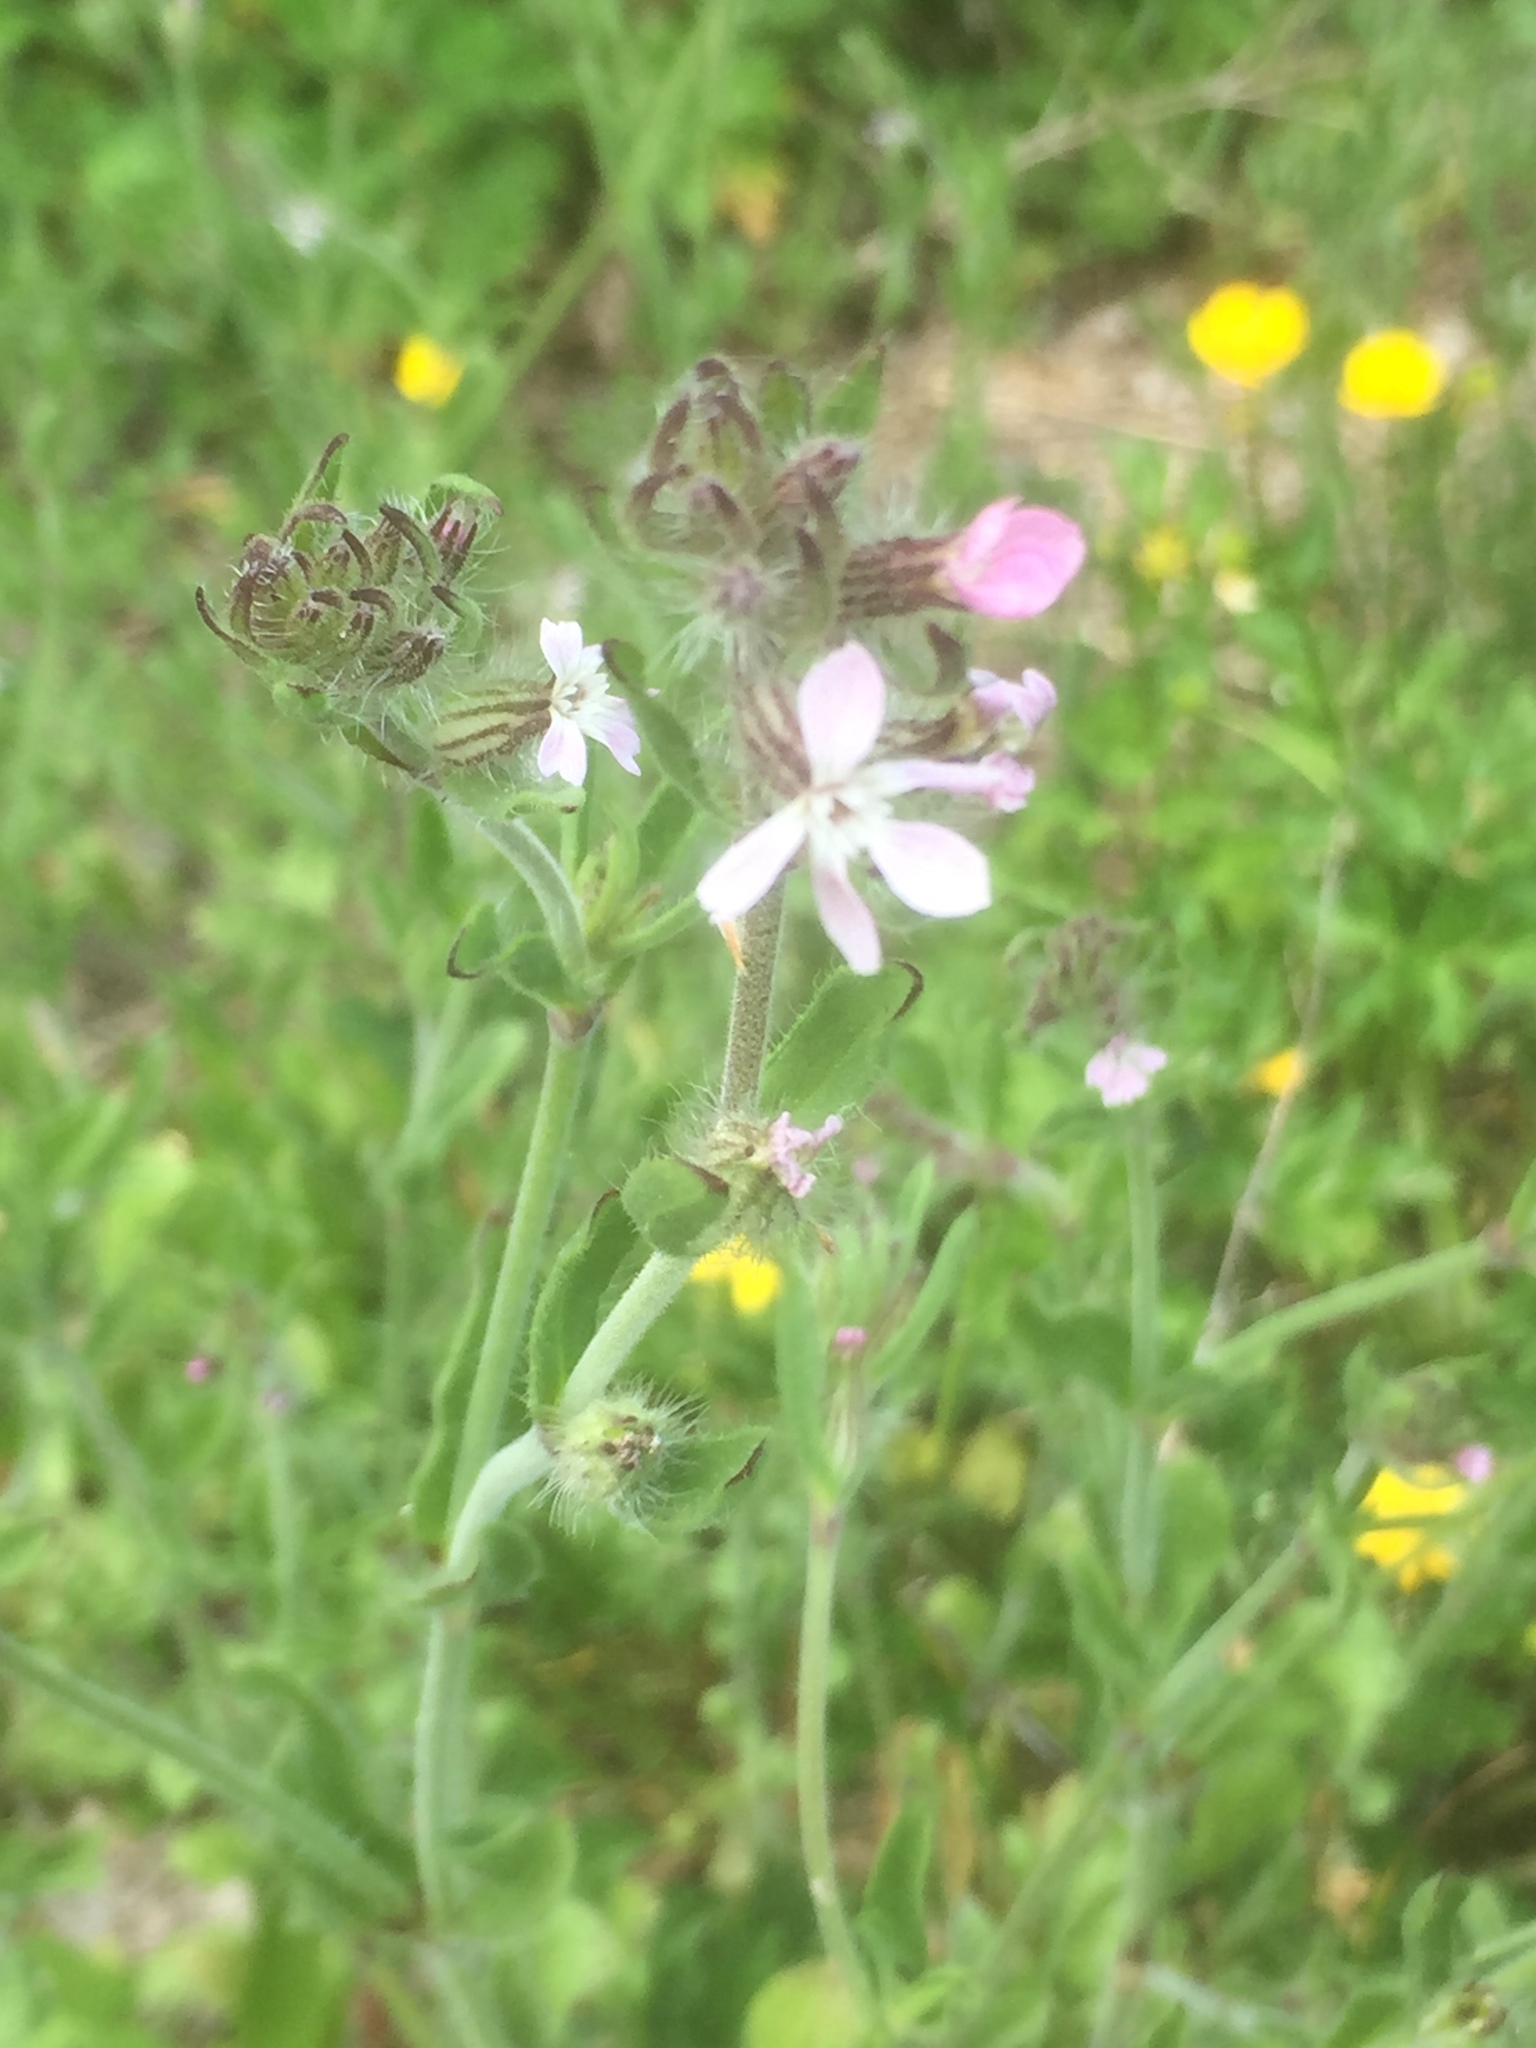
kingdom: Plantae
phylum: Tracheophyta
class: Magnoliopsida
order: Caryophyllales
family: Caryophyllaceae
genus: Silene
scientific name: Silene gallica
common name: Small-flowered catchfly
